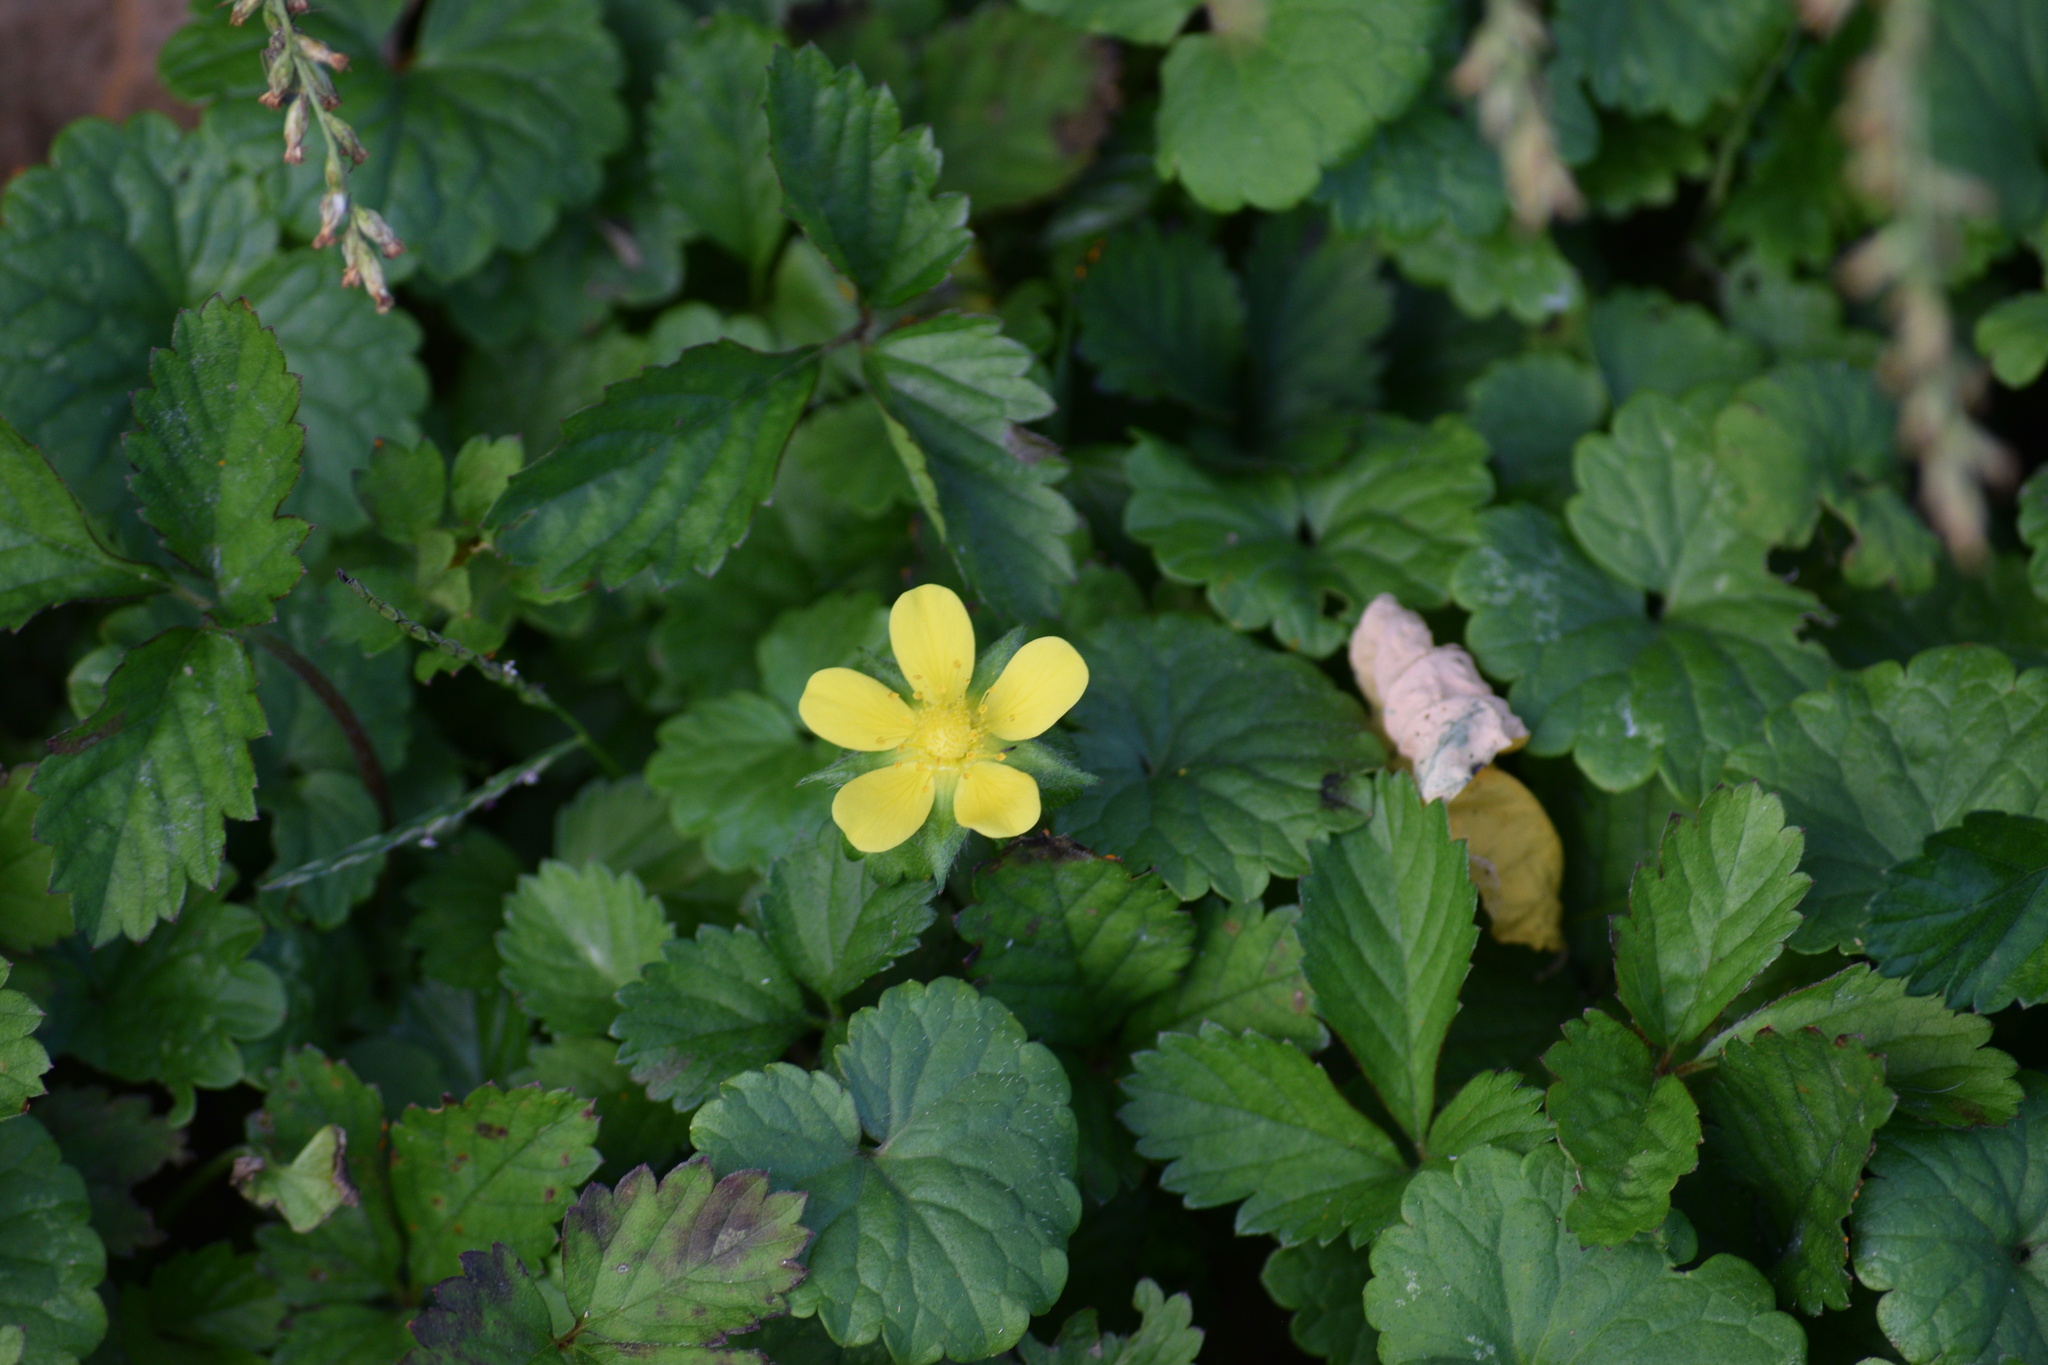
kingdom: Plantae
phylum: Tracheophyta
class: Magnoliopsida
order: Rosales
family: Rosaceae
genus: Potentilla
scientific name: Potentilla indica
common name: Yellow-flowered strawberry
